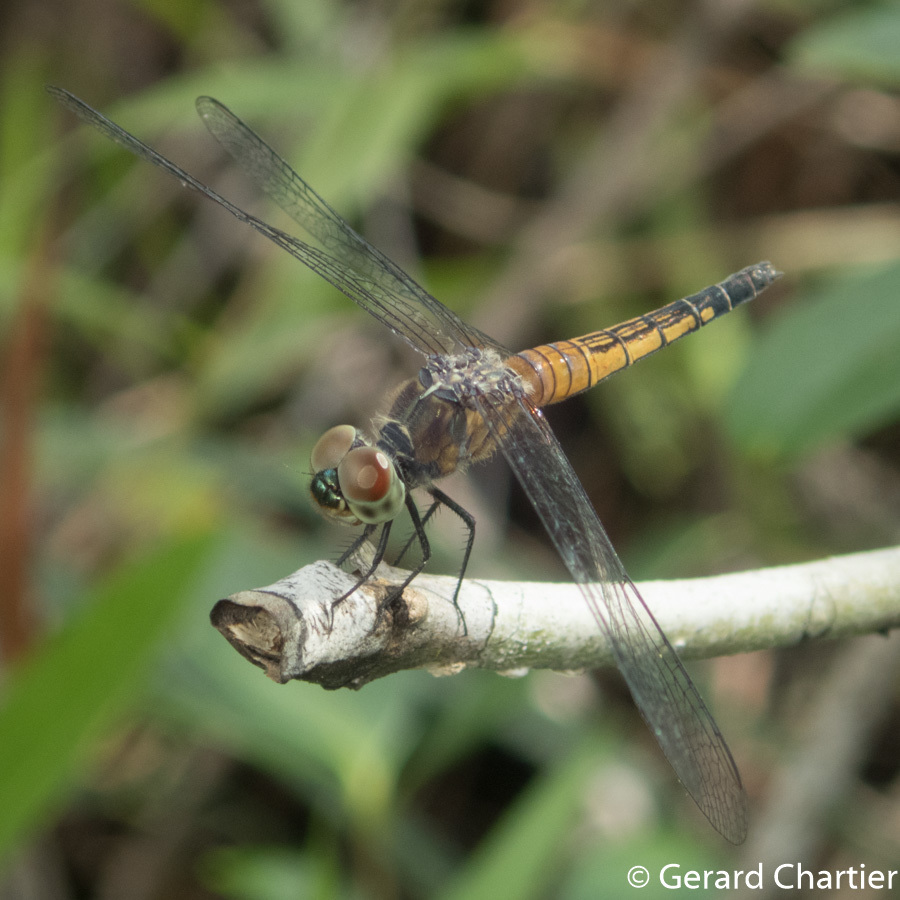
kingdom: Animalia
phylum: Arthropoda
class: Insecta
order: Odonata
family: Libellulidae
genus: Brachydiplax
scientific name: Brachydiplax chalybea
